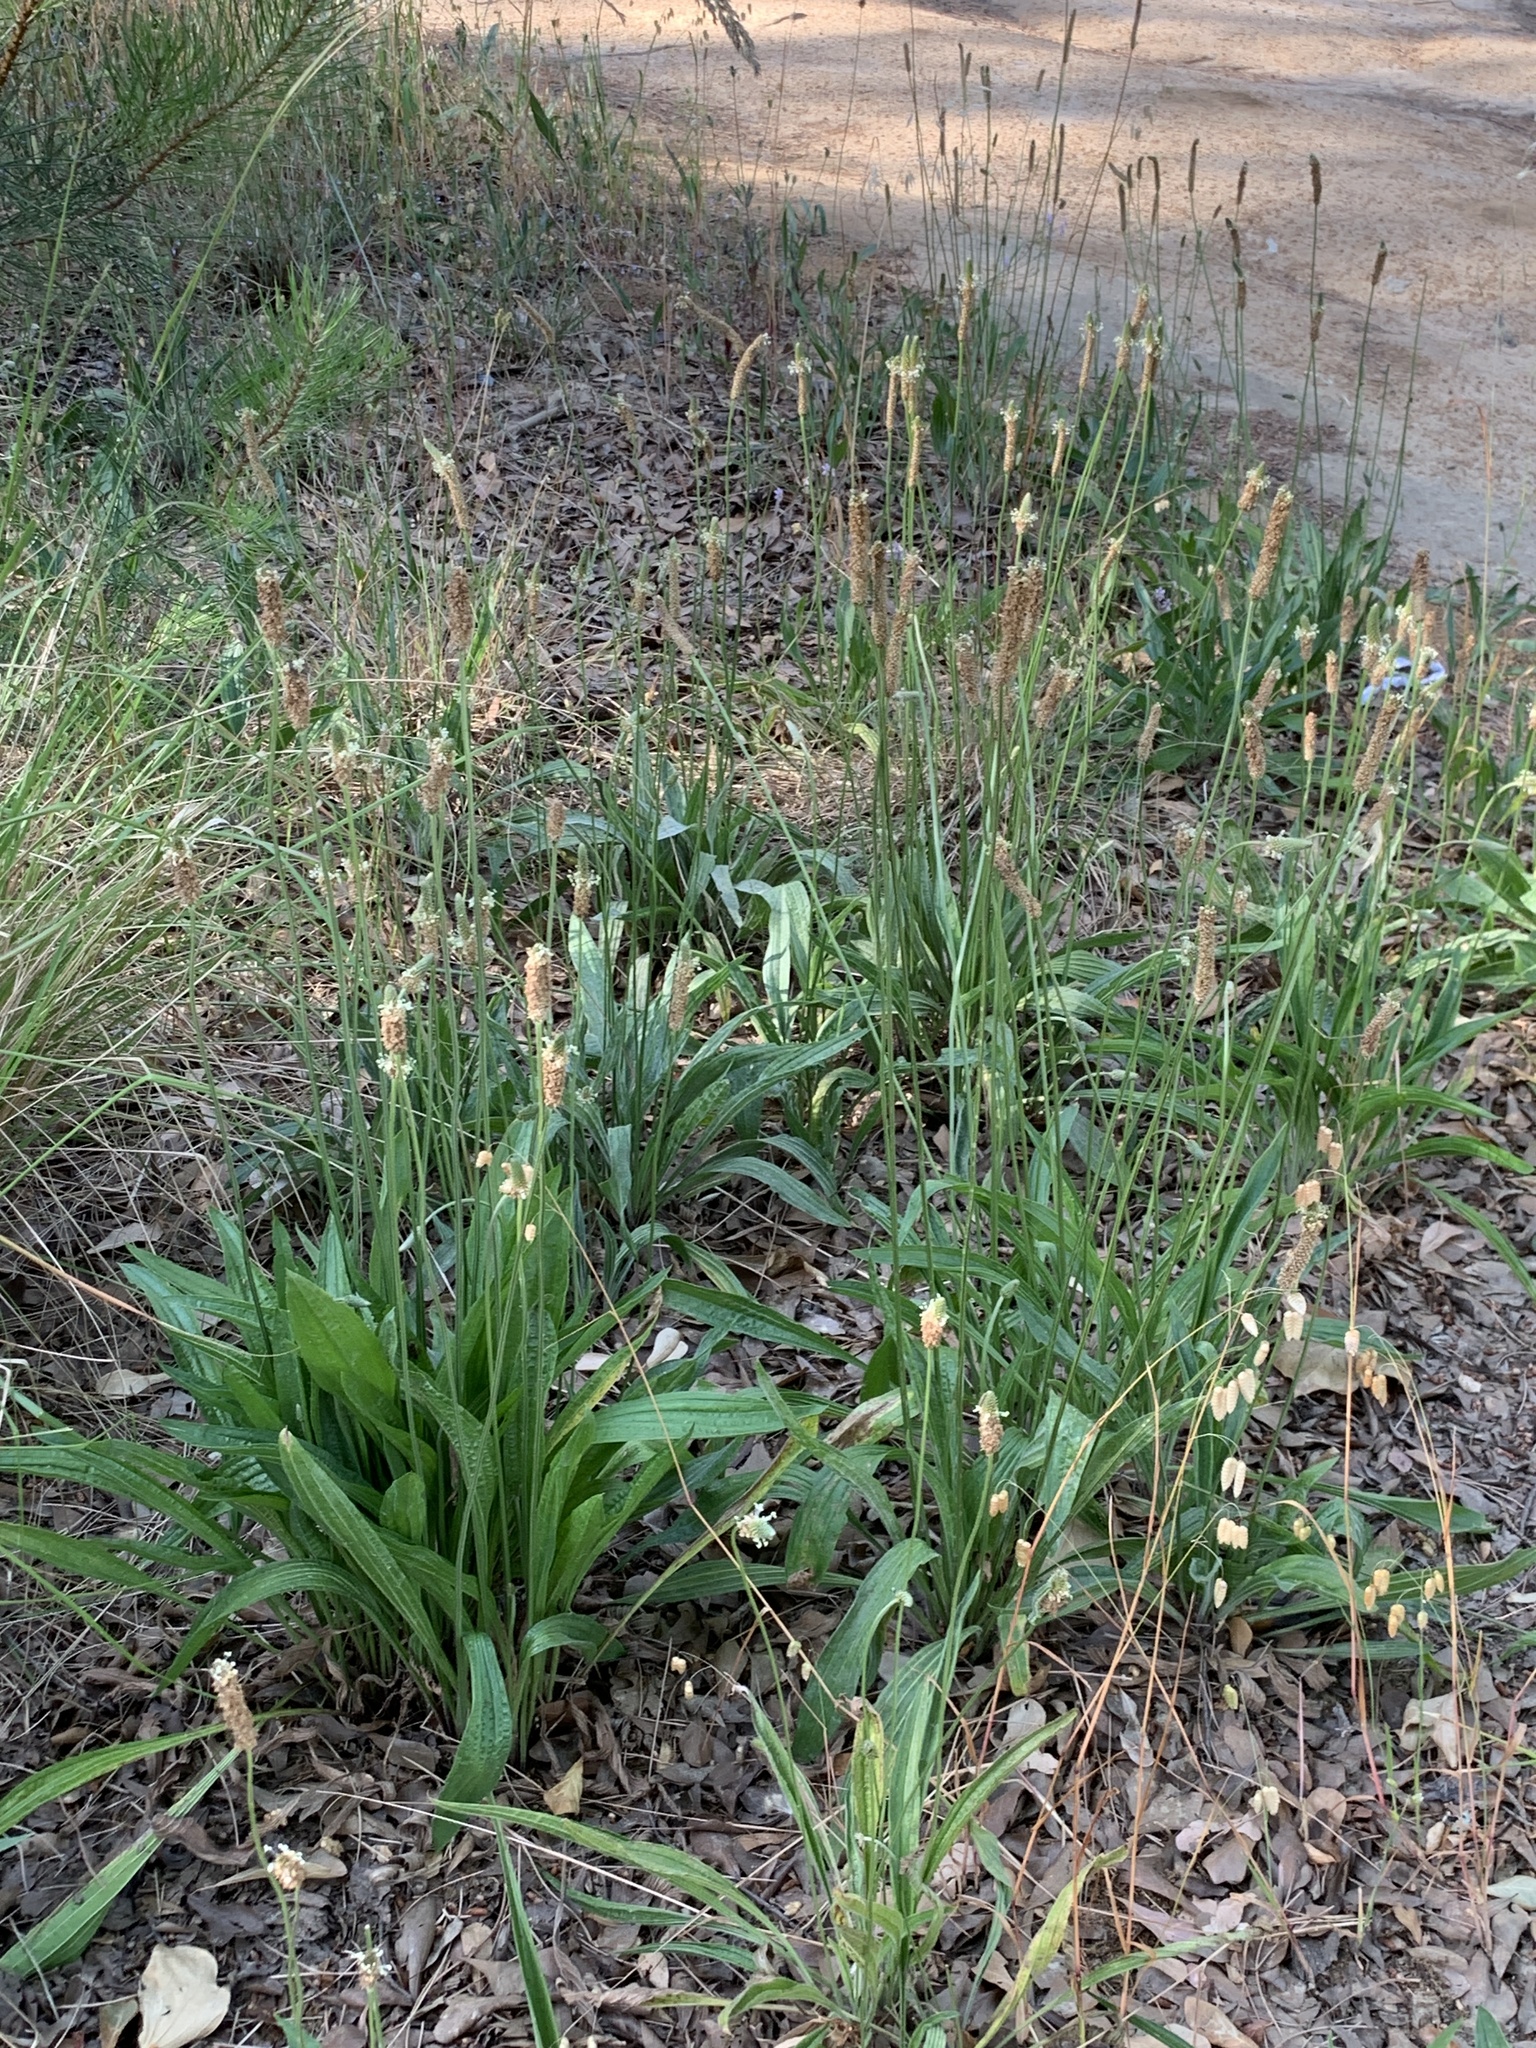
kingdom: Plantae
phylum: Tracheophyta
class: Magnoliopsida
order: Lamiales
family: Plantaginaceae
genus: Plantago
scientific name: Plantago lanceolata
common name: Ribwort plantain
